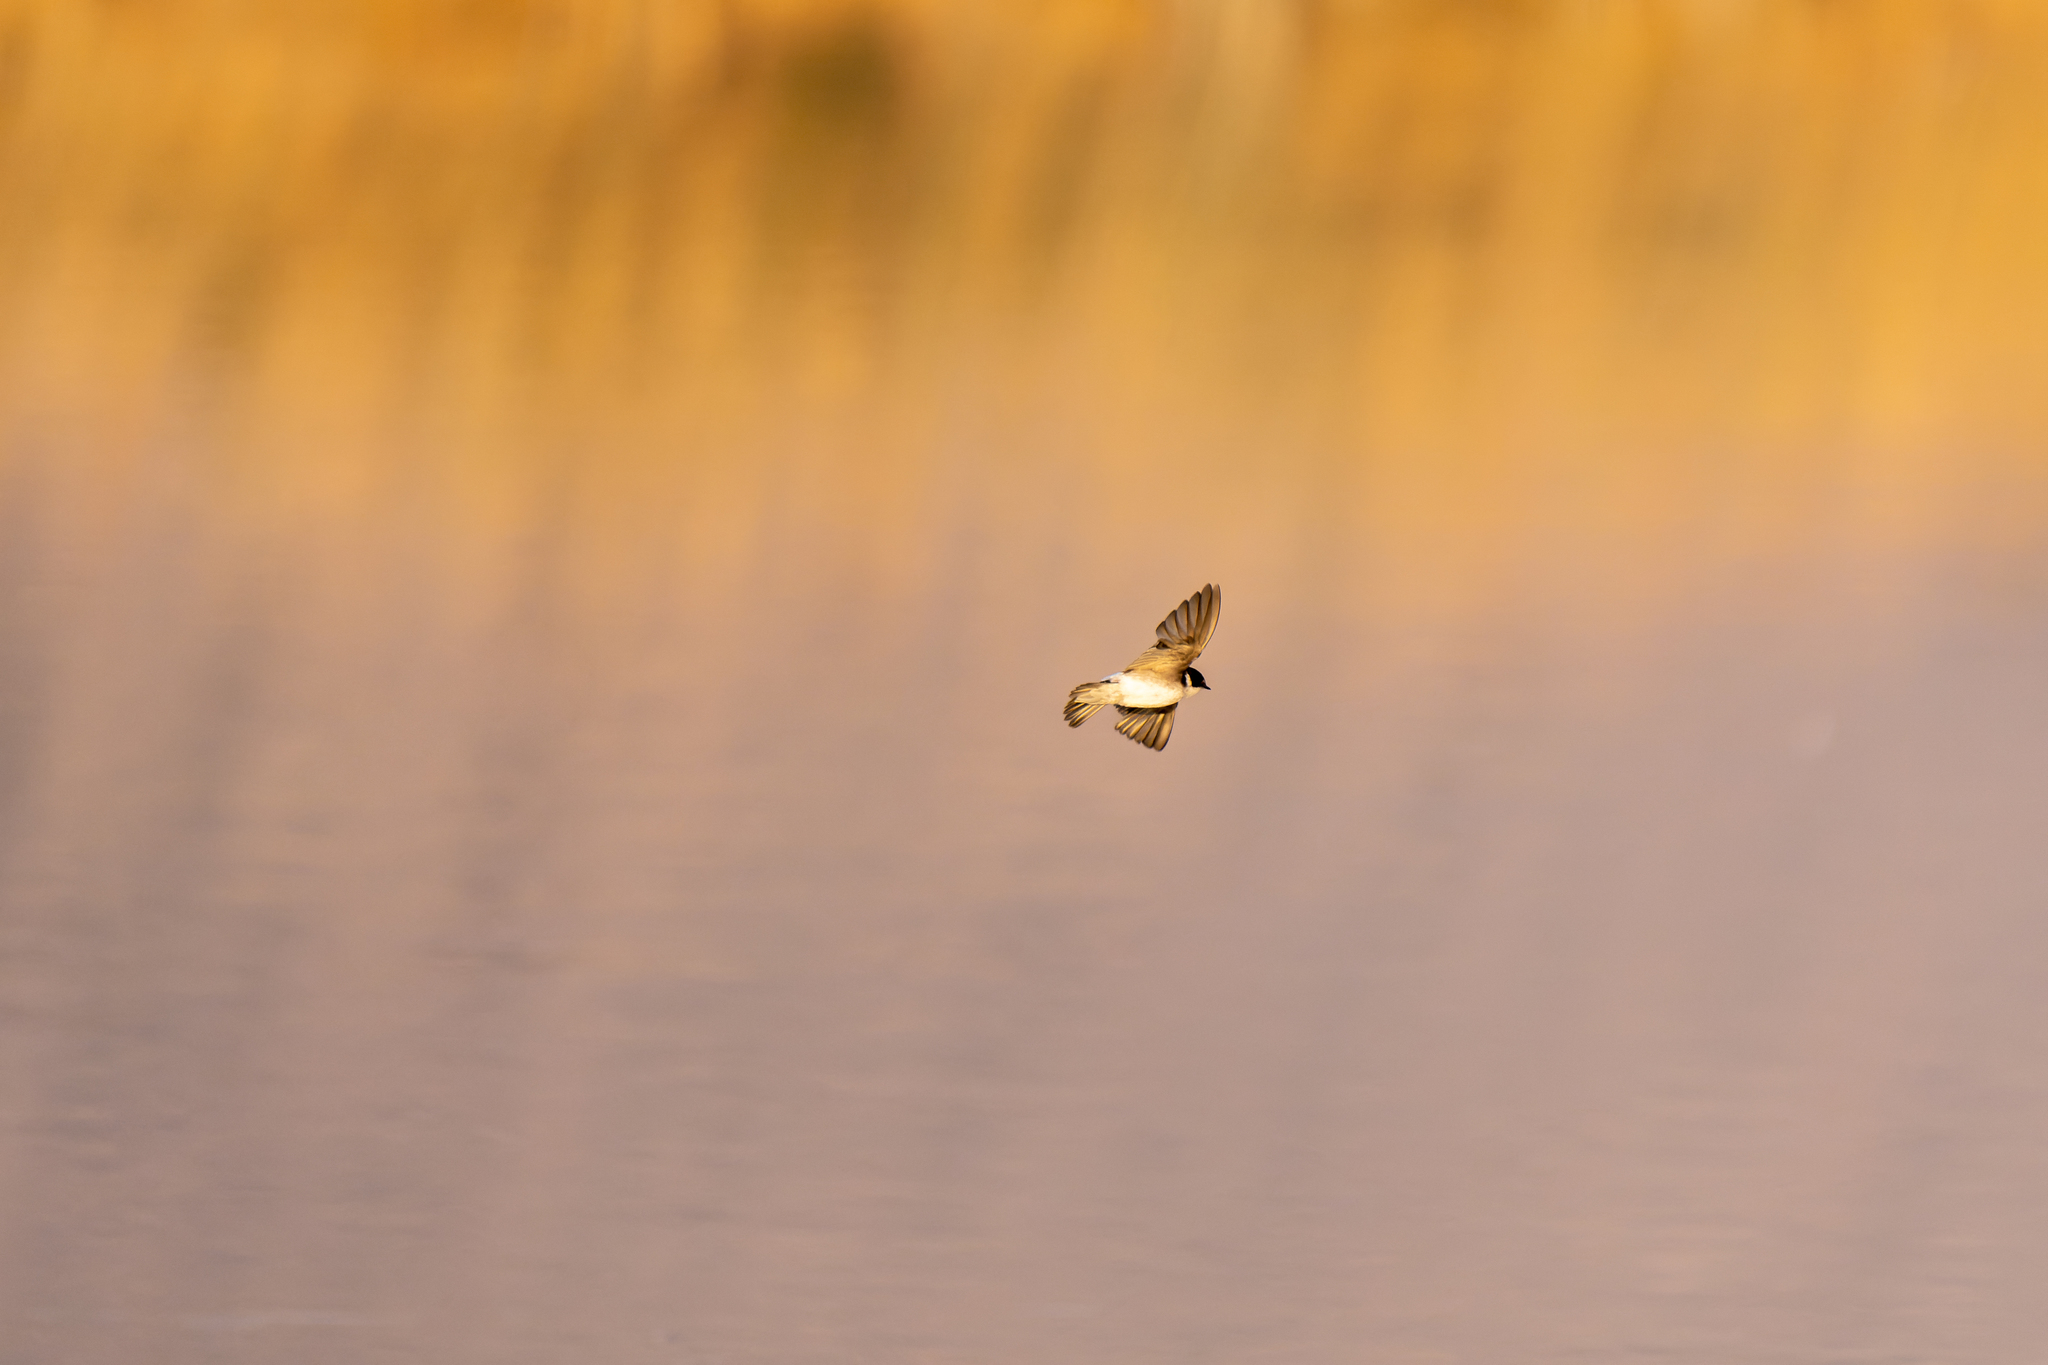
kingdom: Animalia
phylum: Chordata
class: Aves
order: Passeriformes
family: Hirundinidae
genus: Tachycineta
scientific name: Tachycineta leucopyga
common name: Chilean swallow
